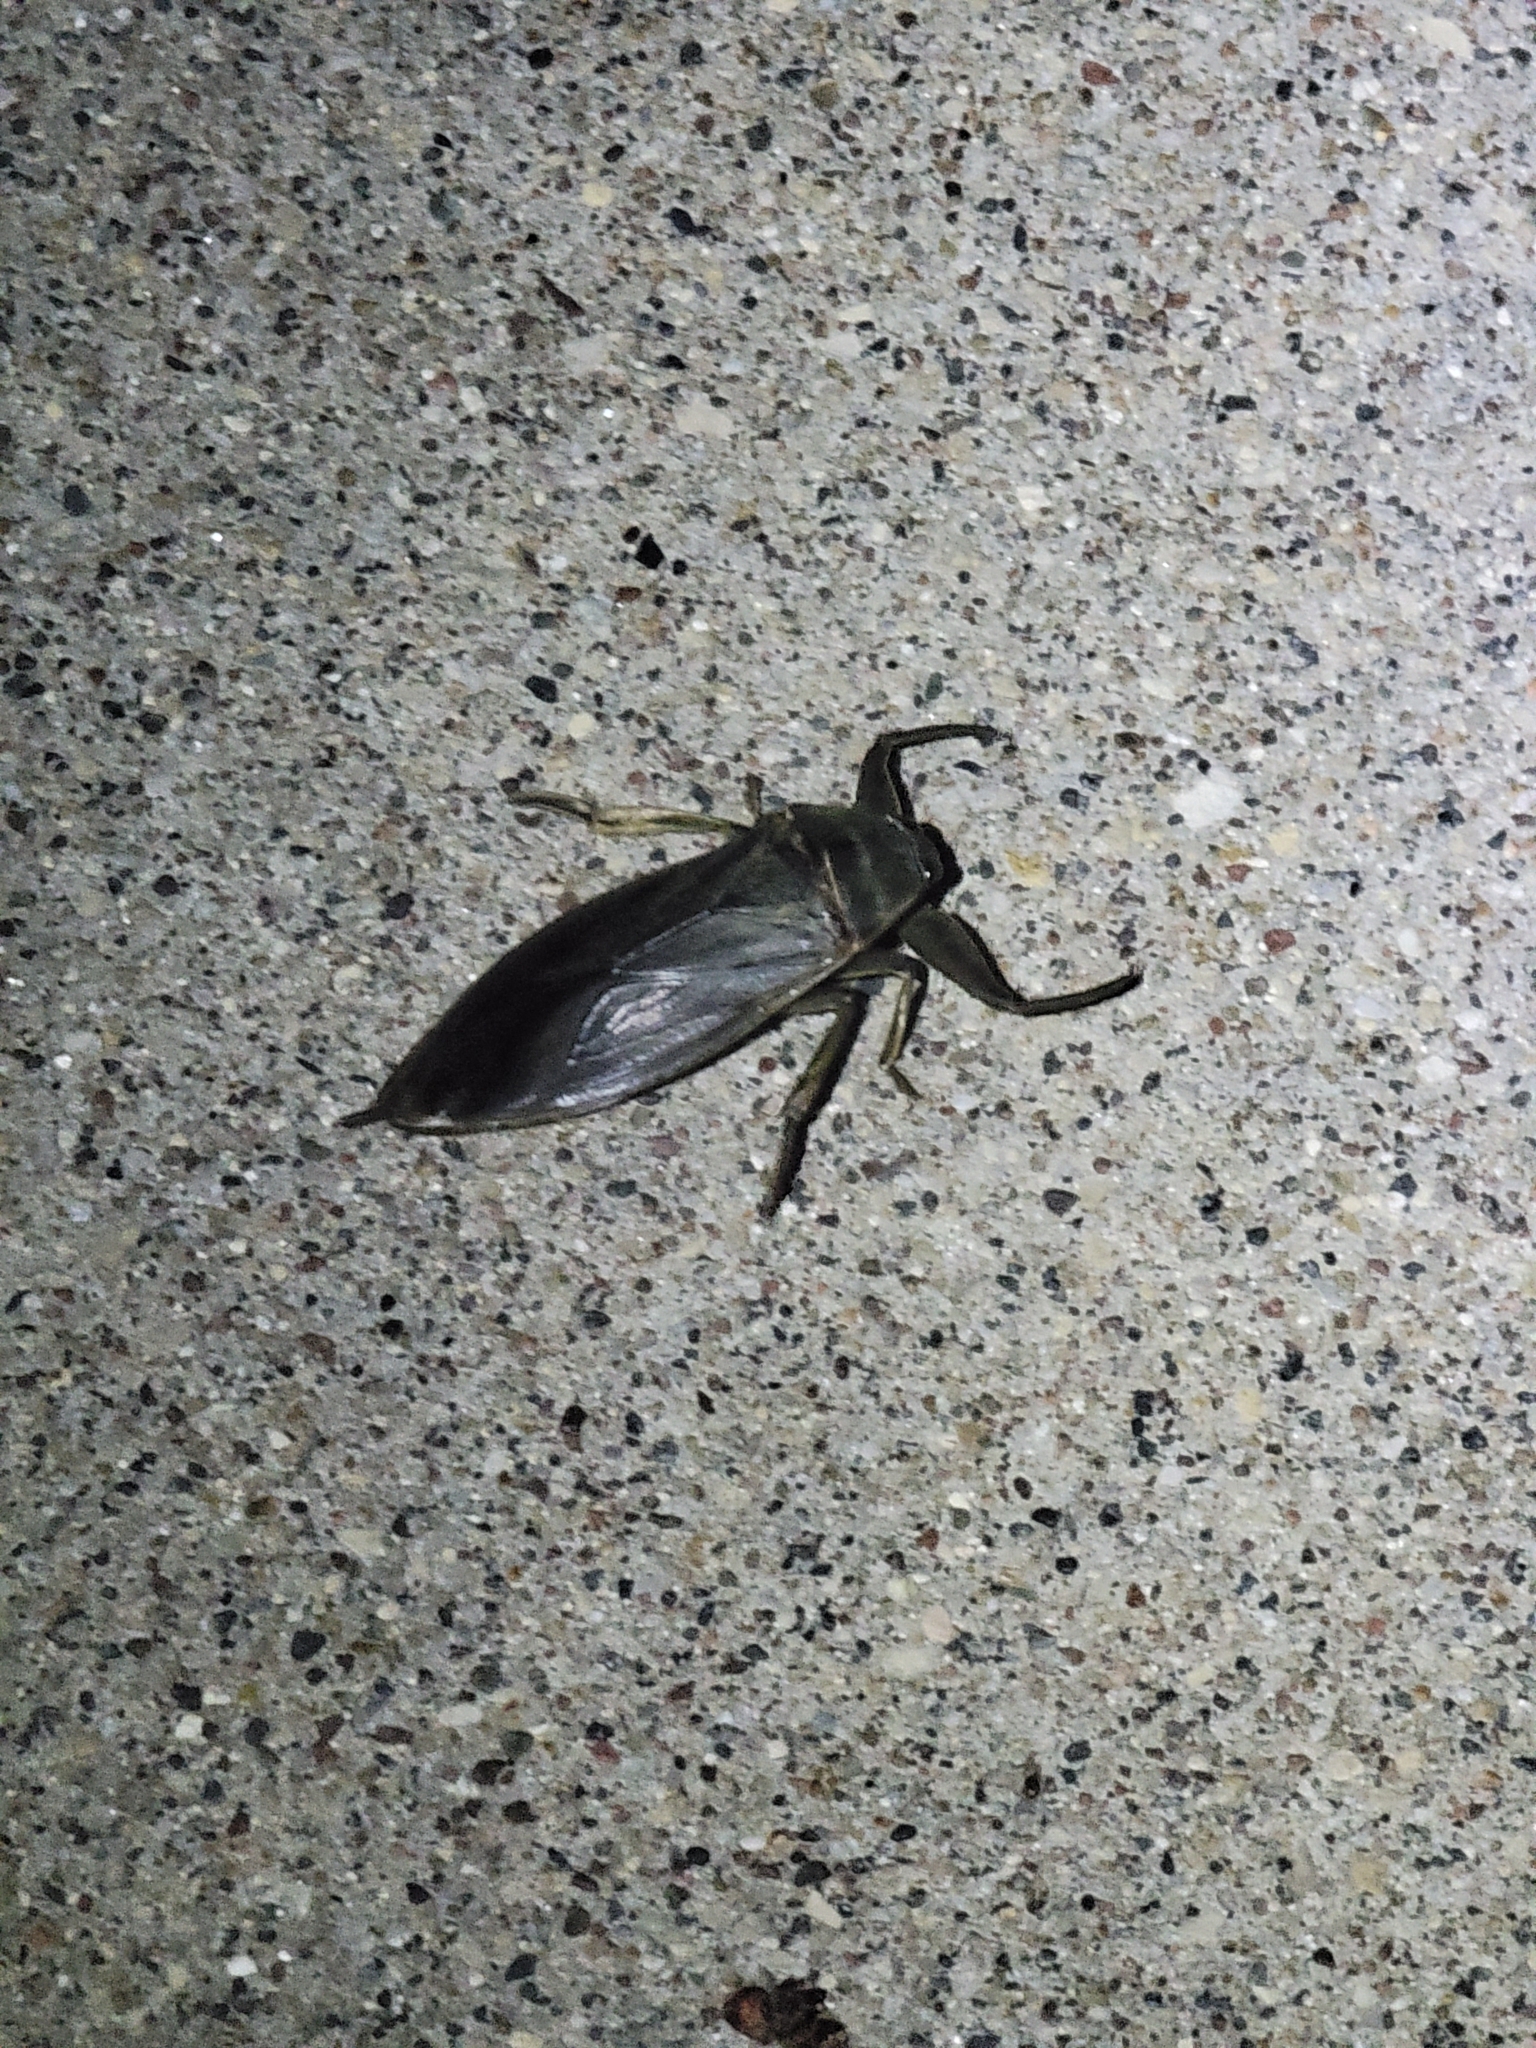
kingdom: Animalia
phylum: Arthropoda
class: Insecta
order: Hemiptera
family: Belostomatidae
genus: Lethocerus
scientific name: Lethocerus americanus
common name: Giant water bug
